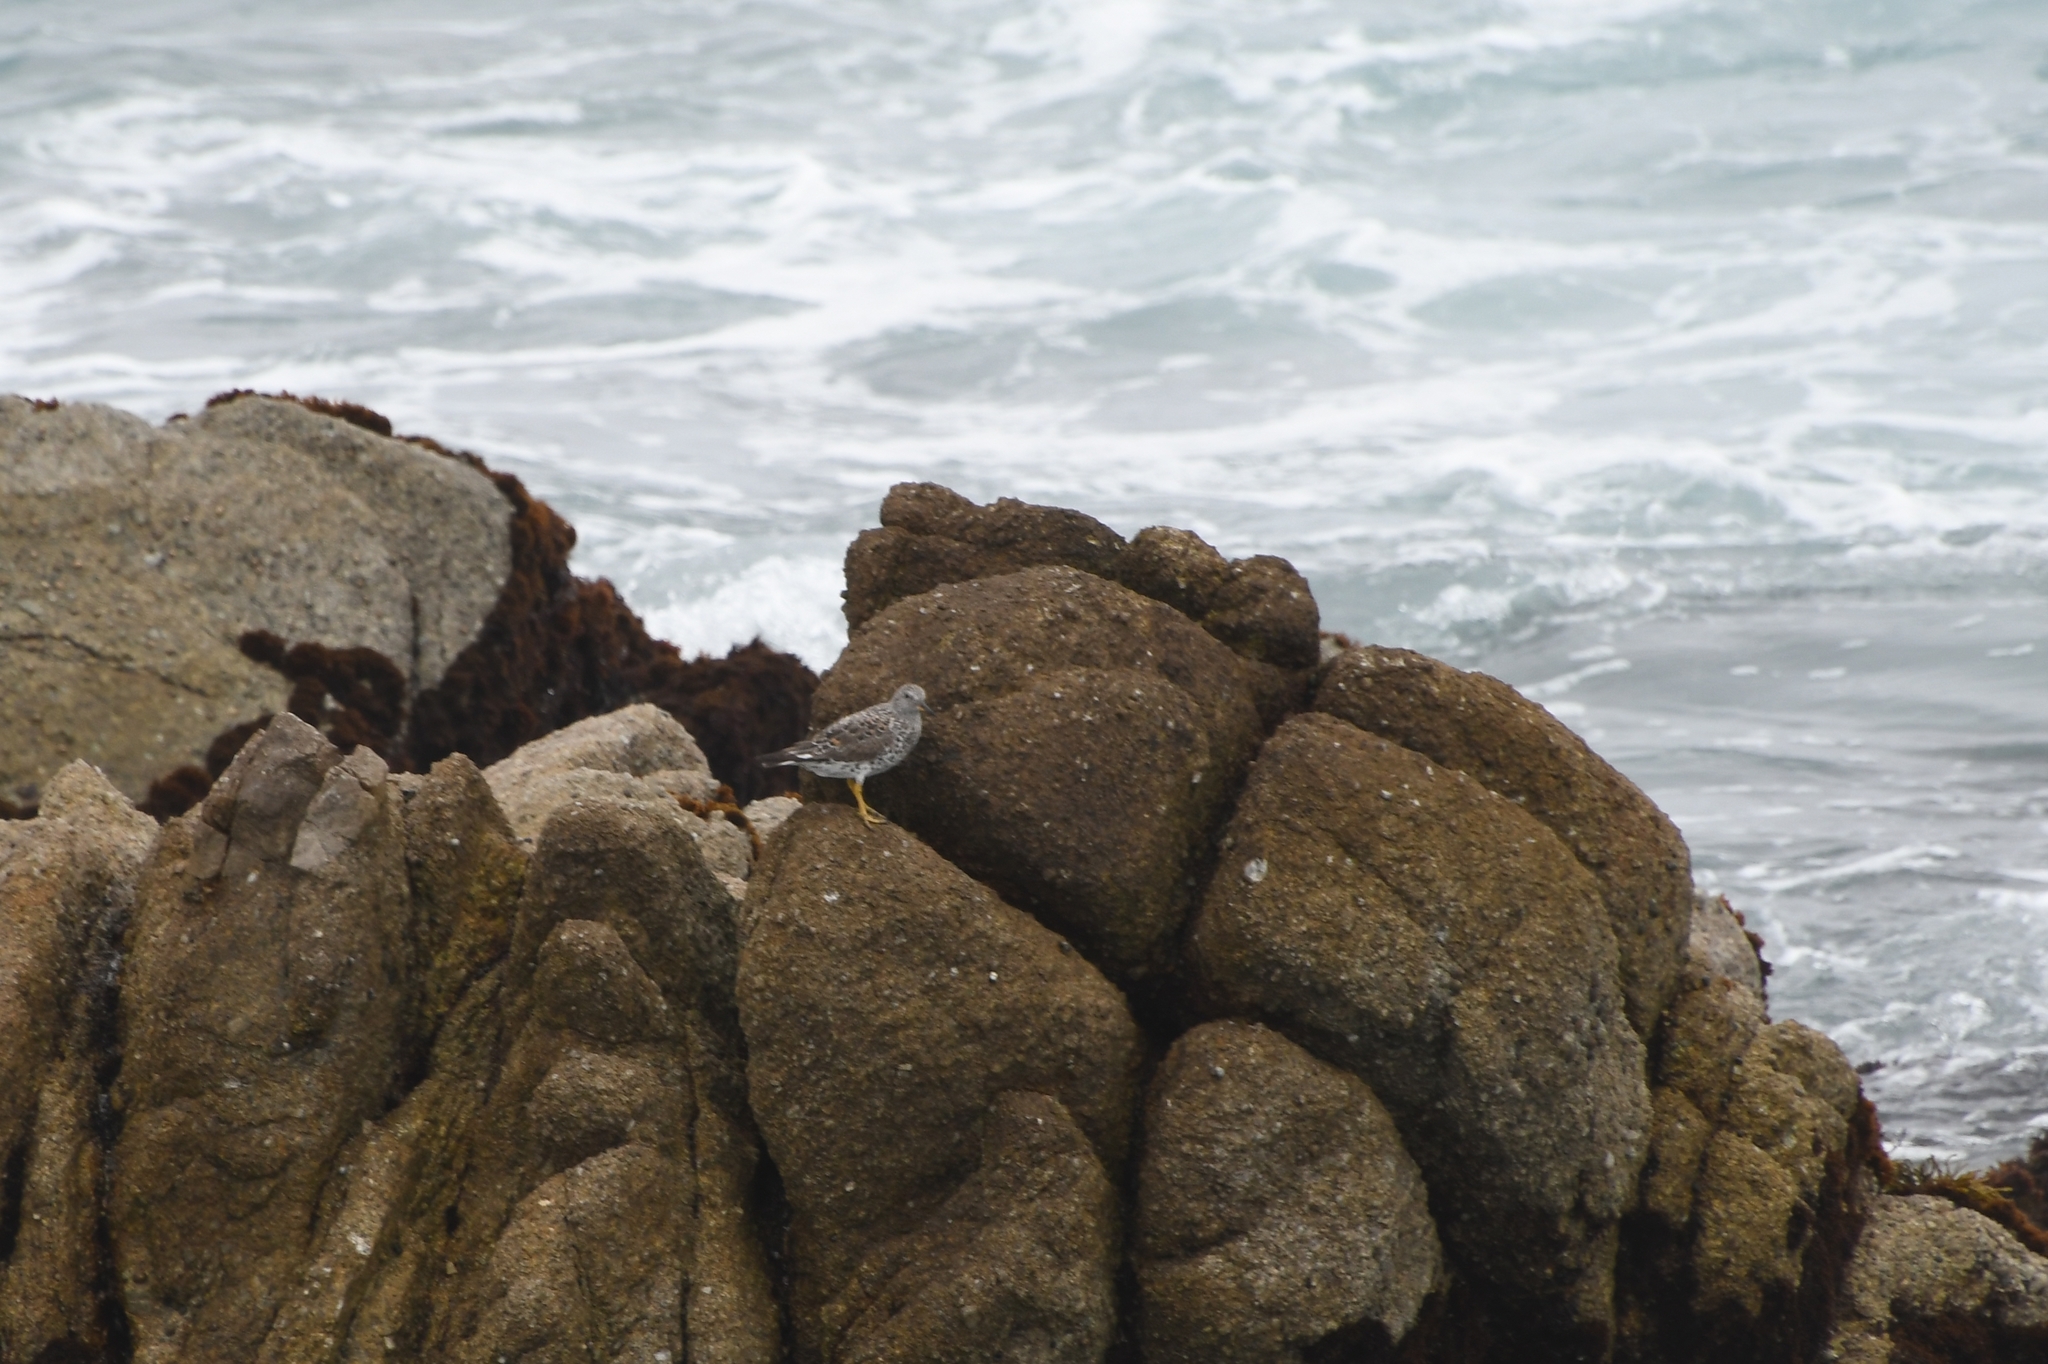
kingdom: Animalia
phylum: Chordata
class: Aves
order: Charadriiformes
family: Scolopacidae
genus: Calidris
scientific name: Calidris virgata
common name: Surfbird
